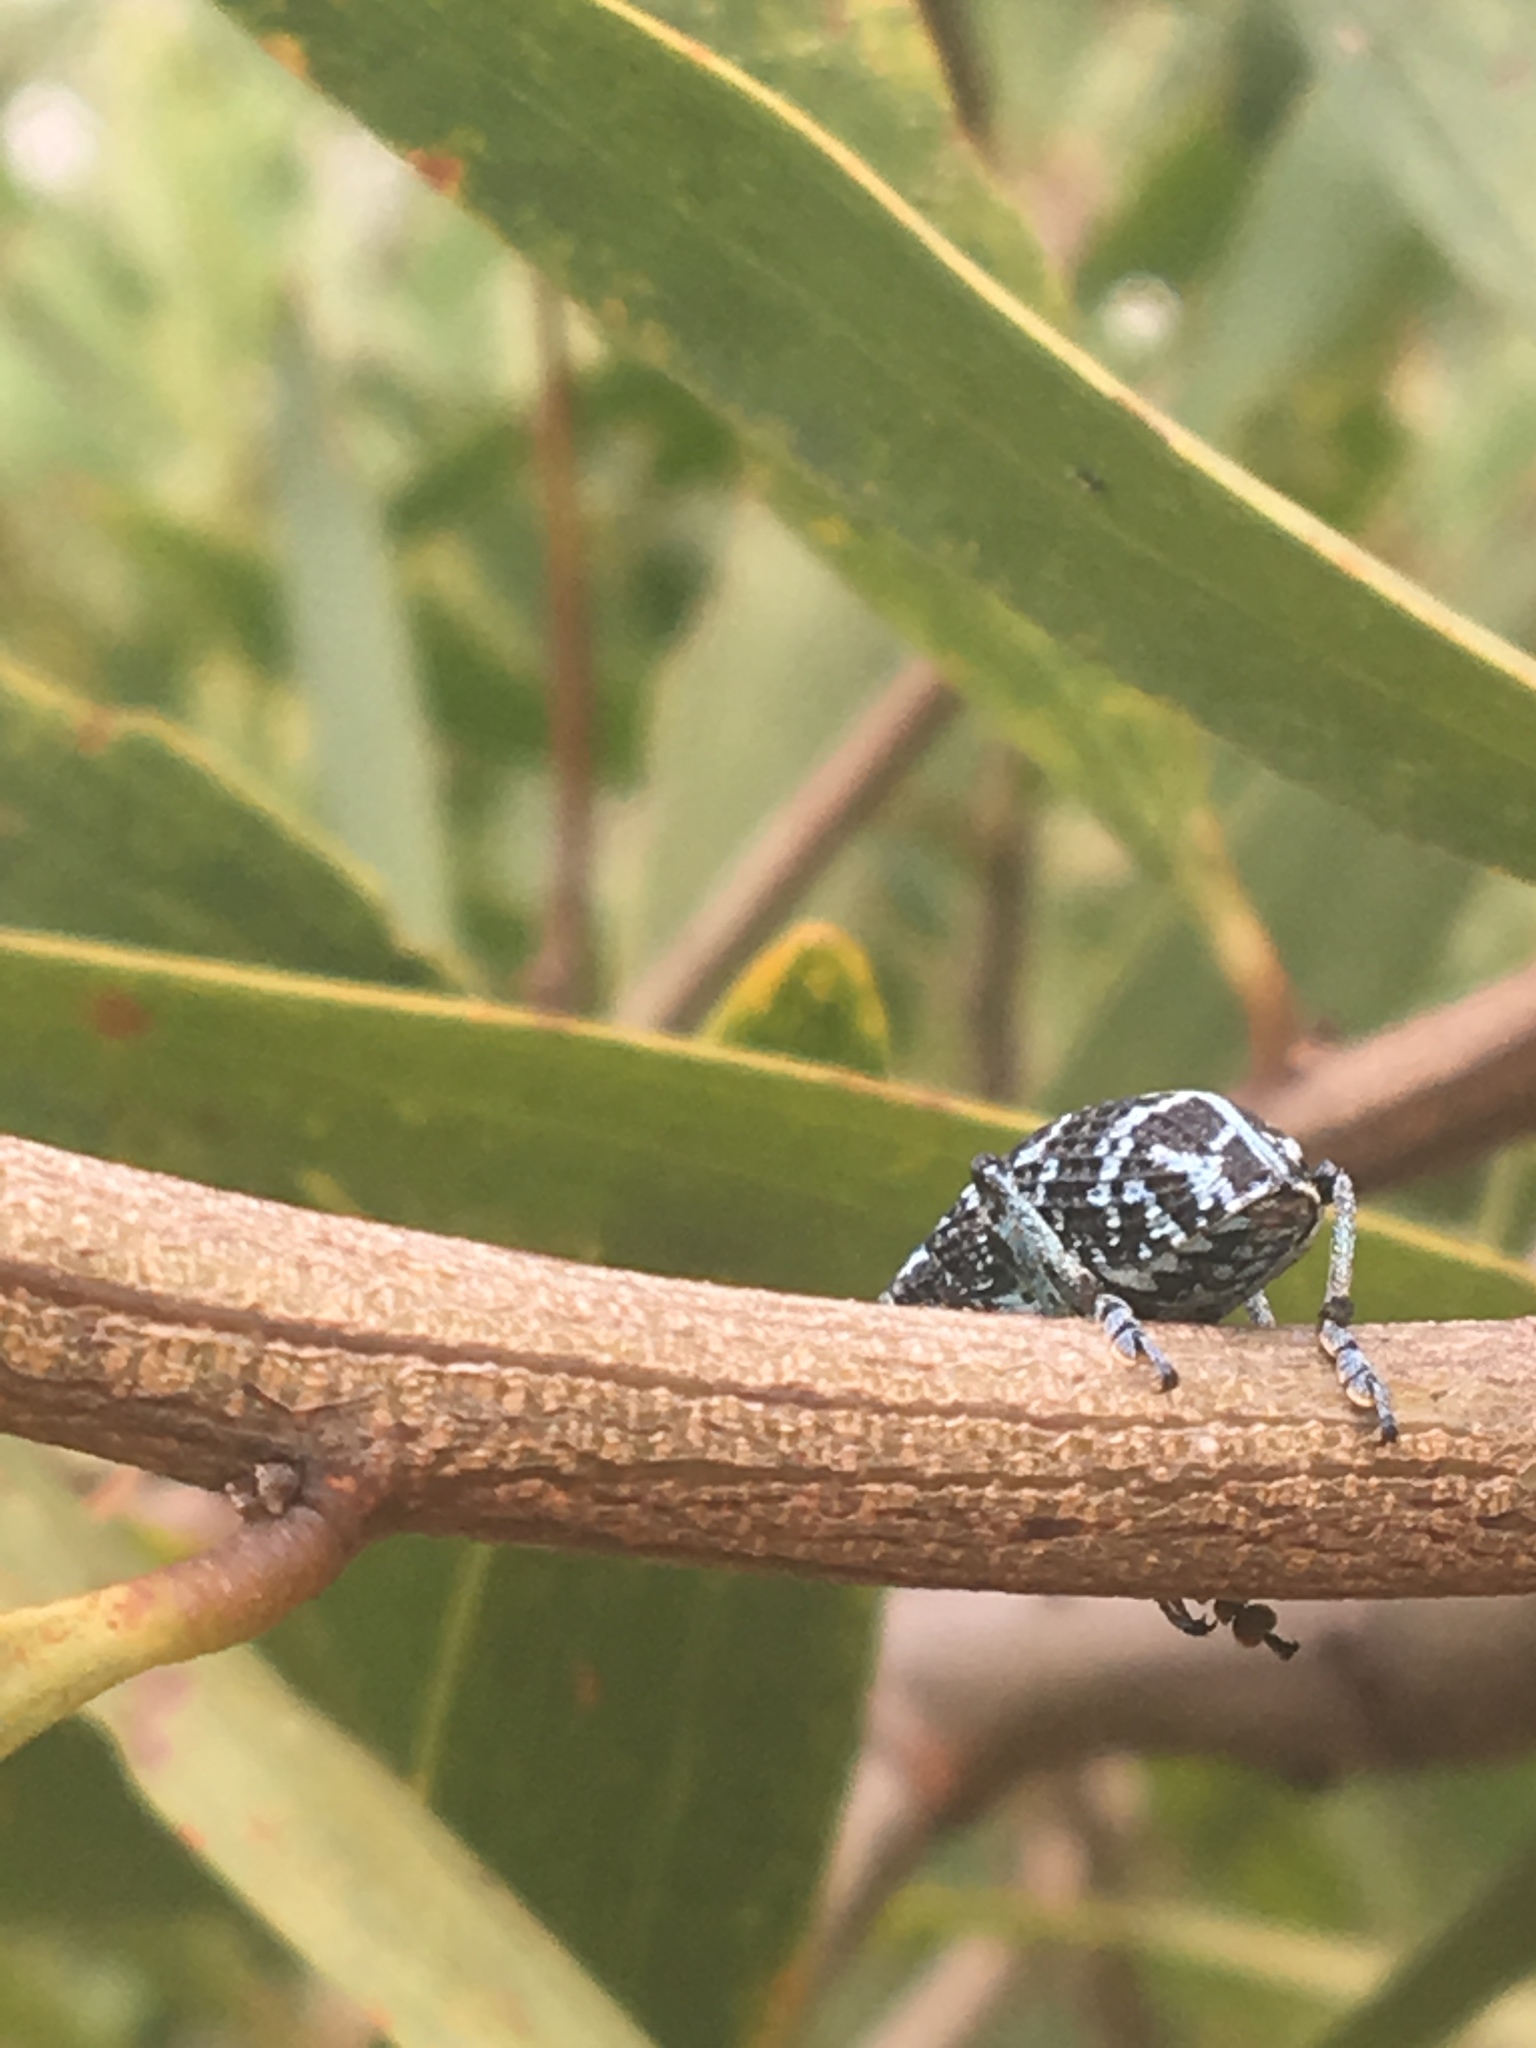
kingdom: Animalia
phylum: Arthropoda
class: Insecta
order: Coleoptera
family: Curculionidae
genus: Chrysolopus
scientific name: Chrysolopus spectabilis
